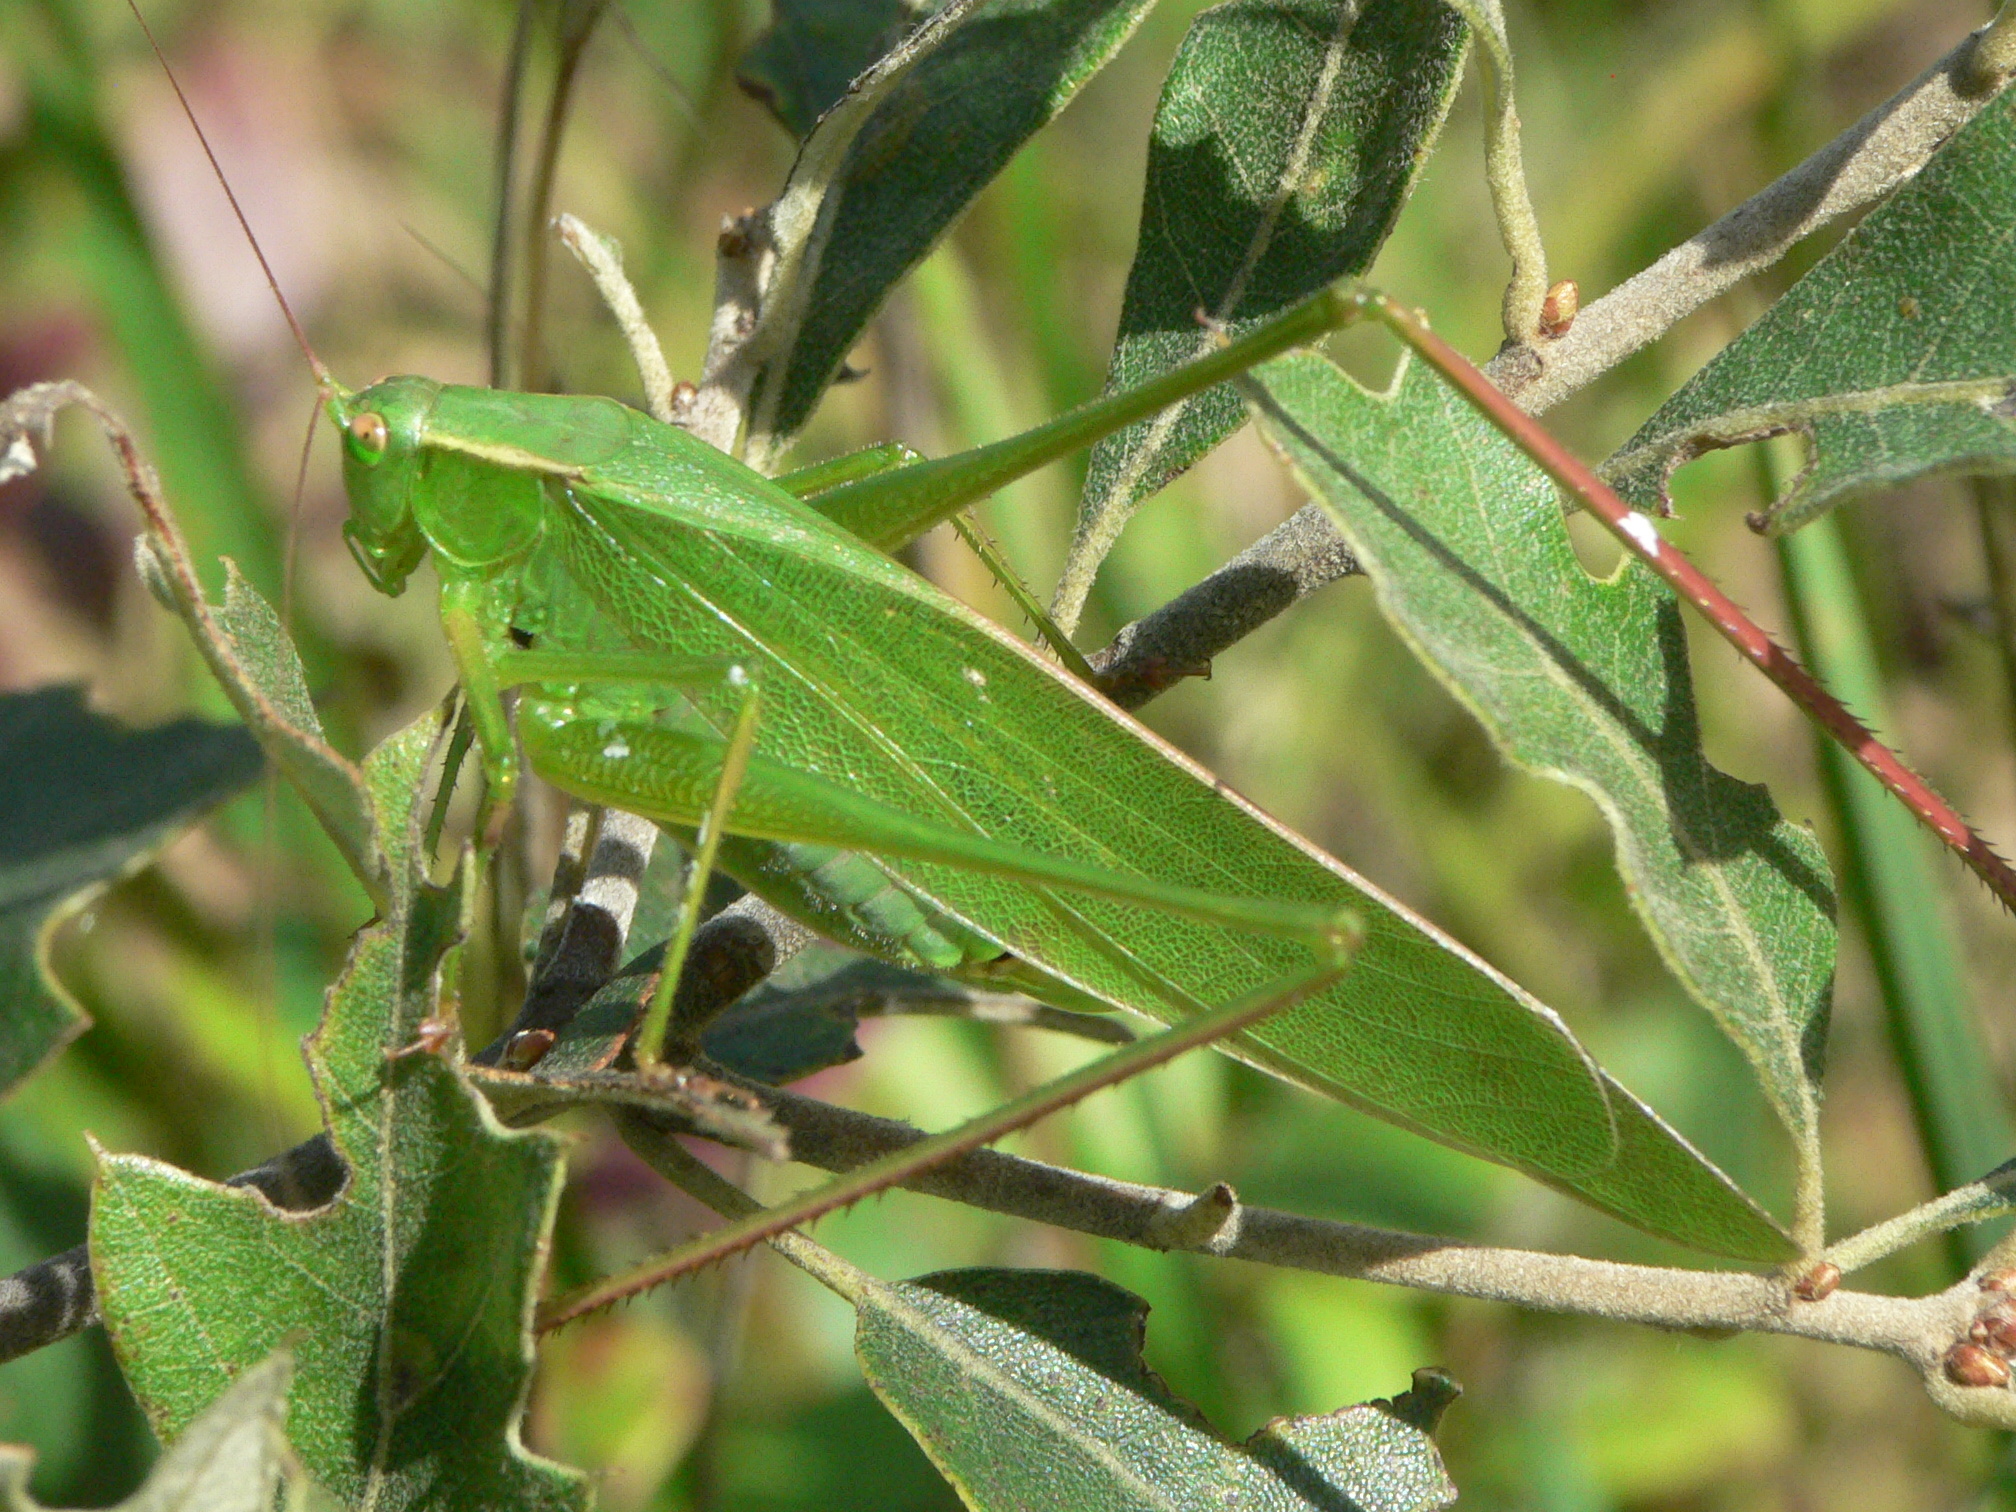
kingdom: Animalia
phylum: Arthropoda
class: Insecta
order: Orthoptera
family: Tettigoniidae
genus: Scudderia
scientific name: Scudderia curvicauda
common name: Curve-tailed bush katydid
